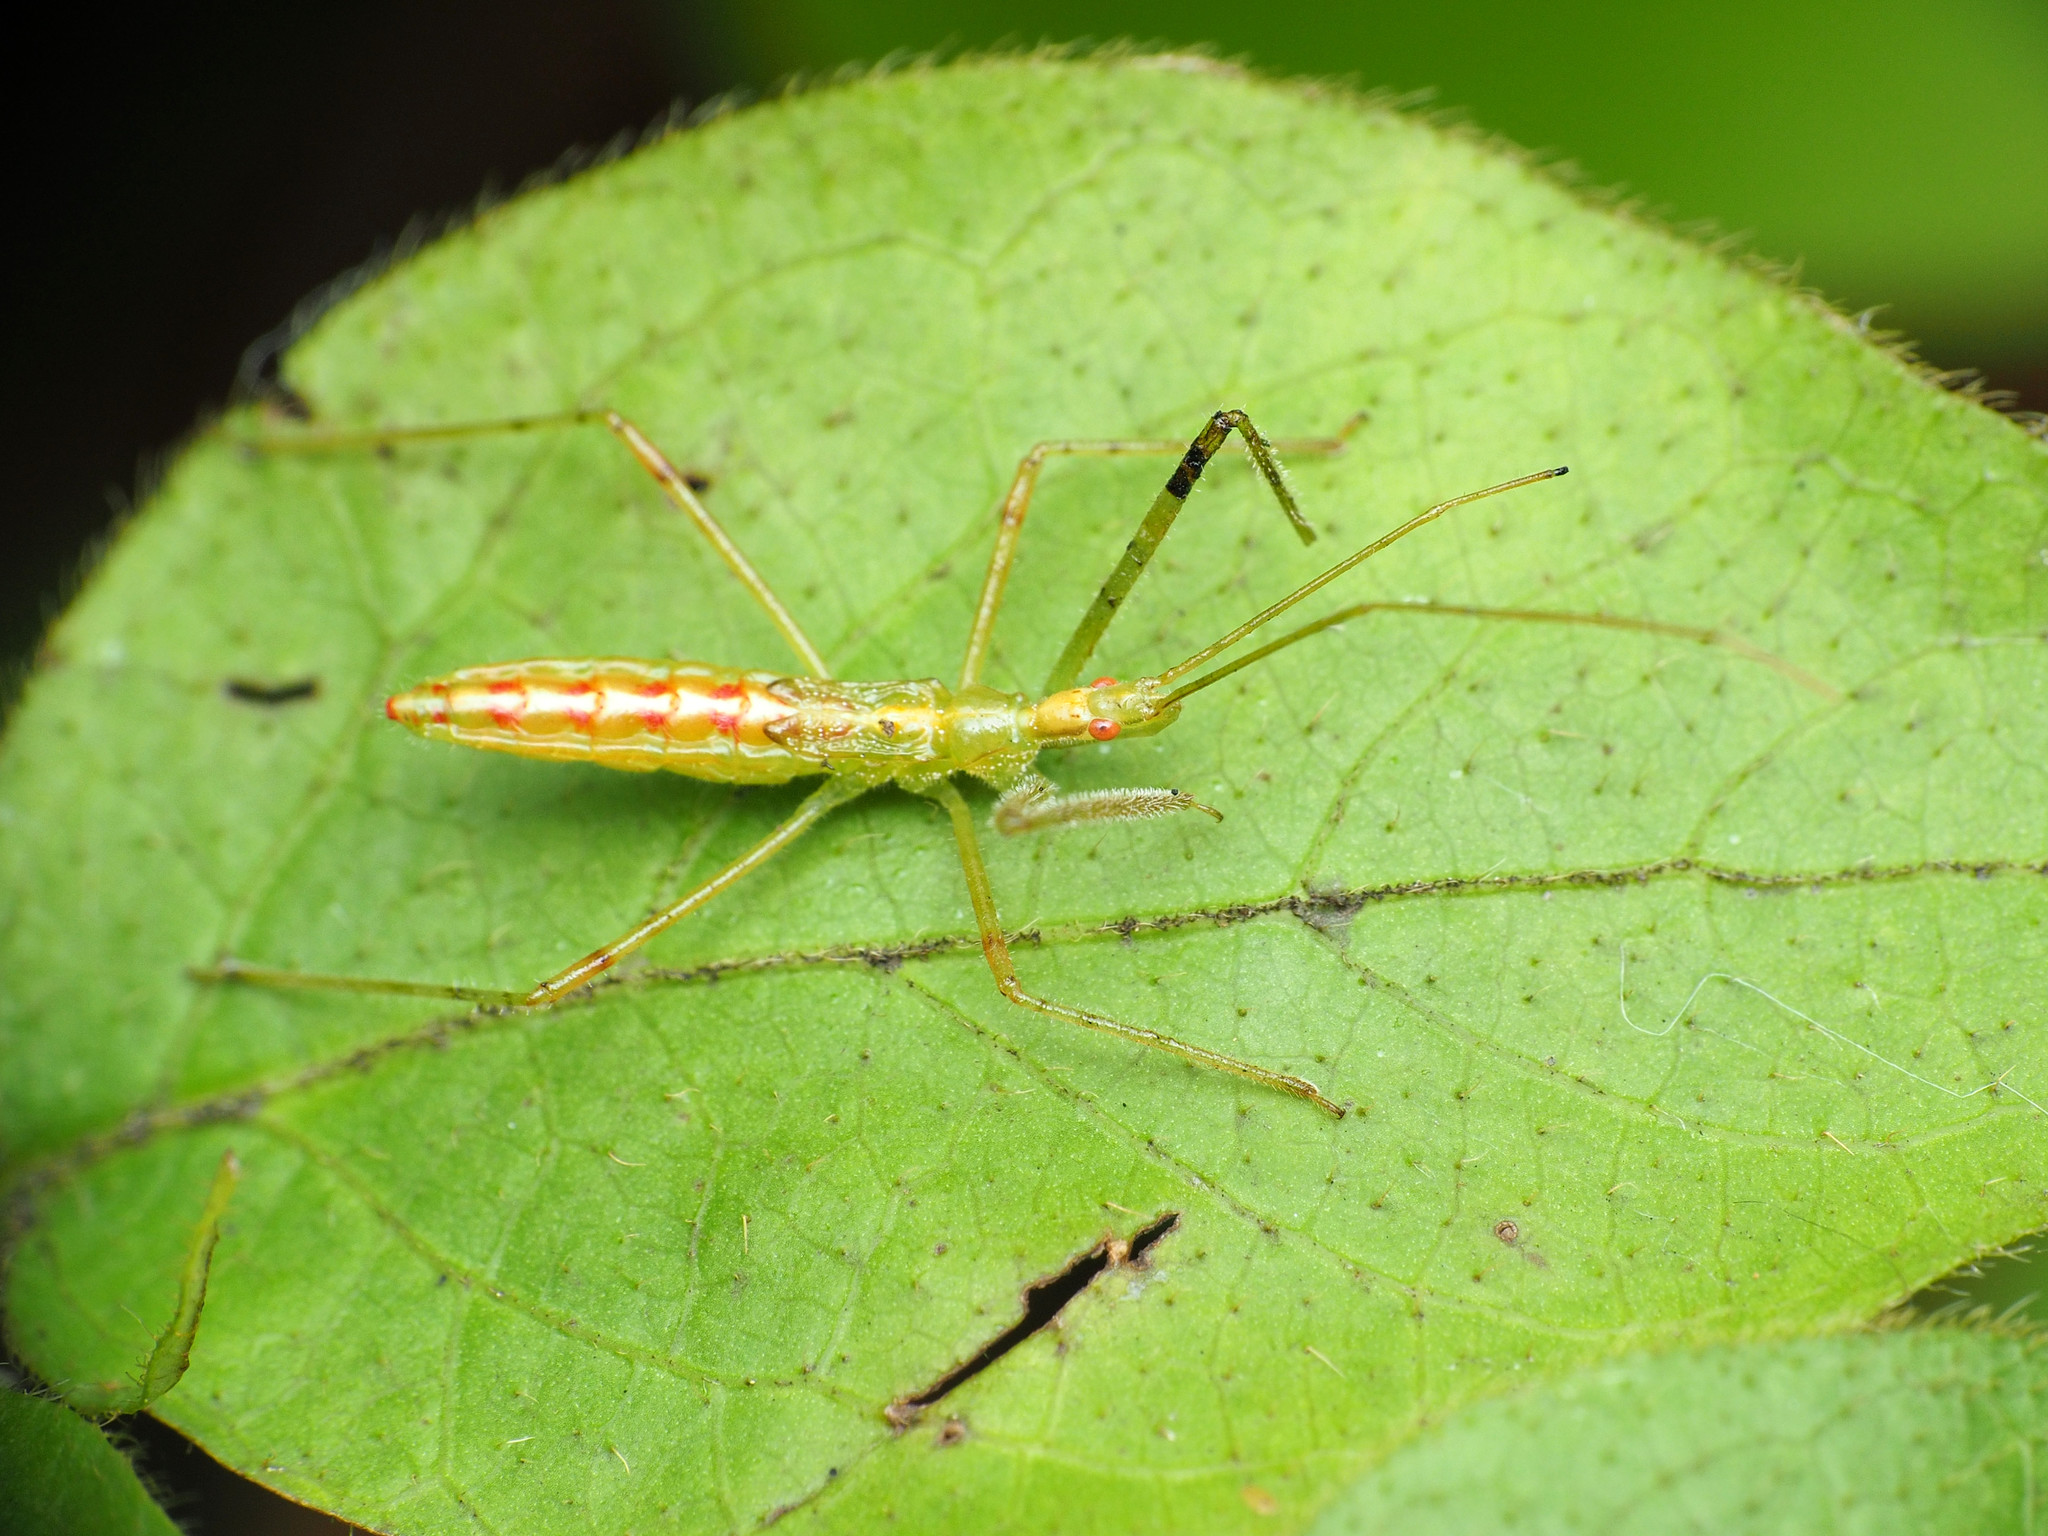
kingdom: Animalia
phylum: Arthropoda
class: Insecta
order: Hemiptera
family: Reduviidae
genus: Zelus
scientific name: Zelus luridus
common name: Pale green assassin bug
